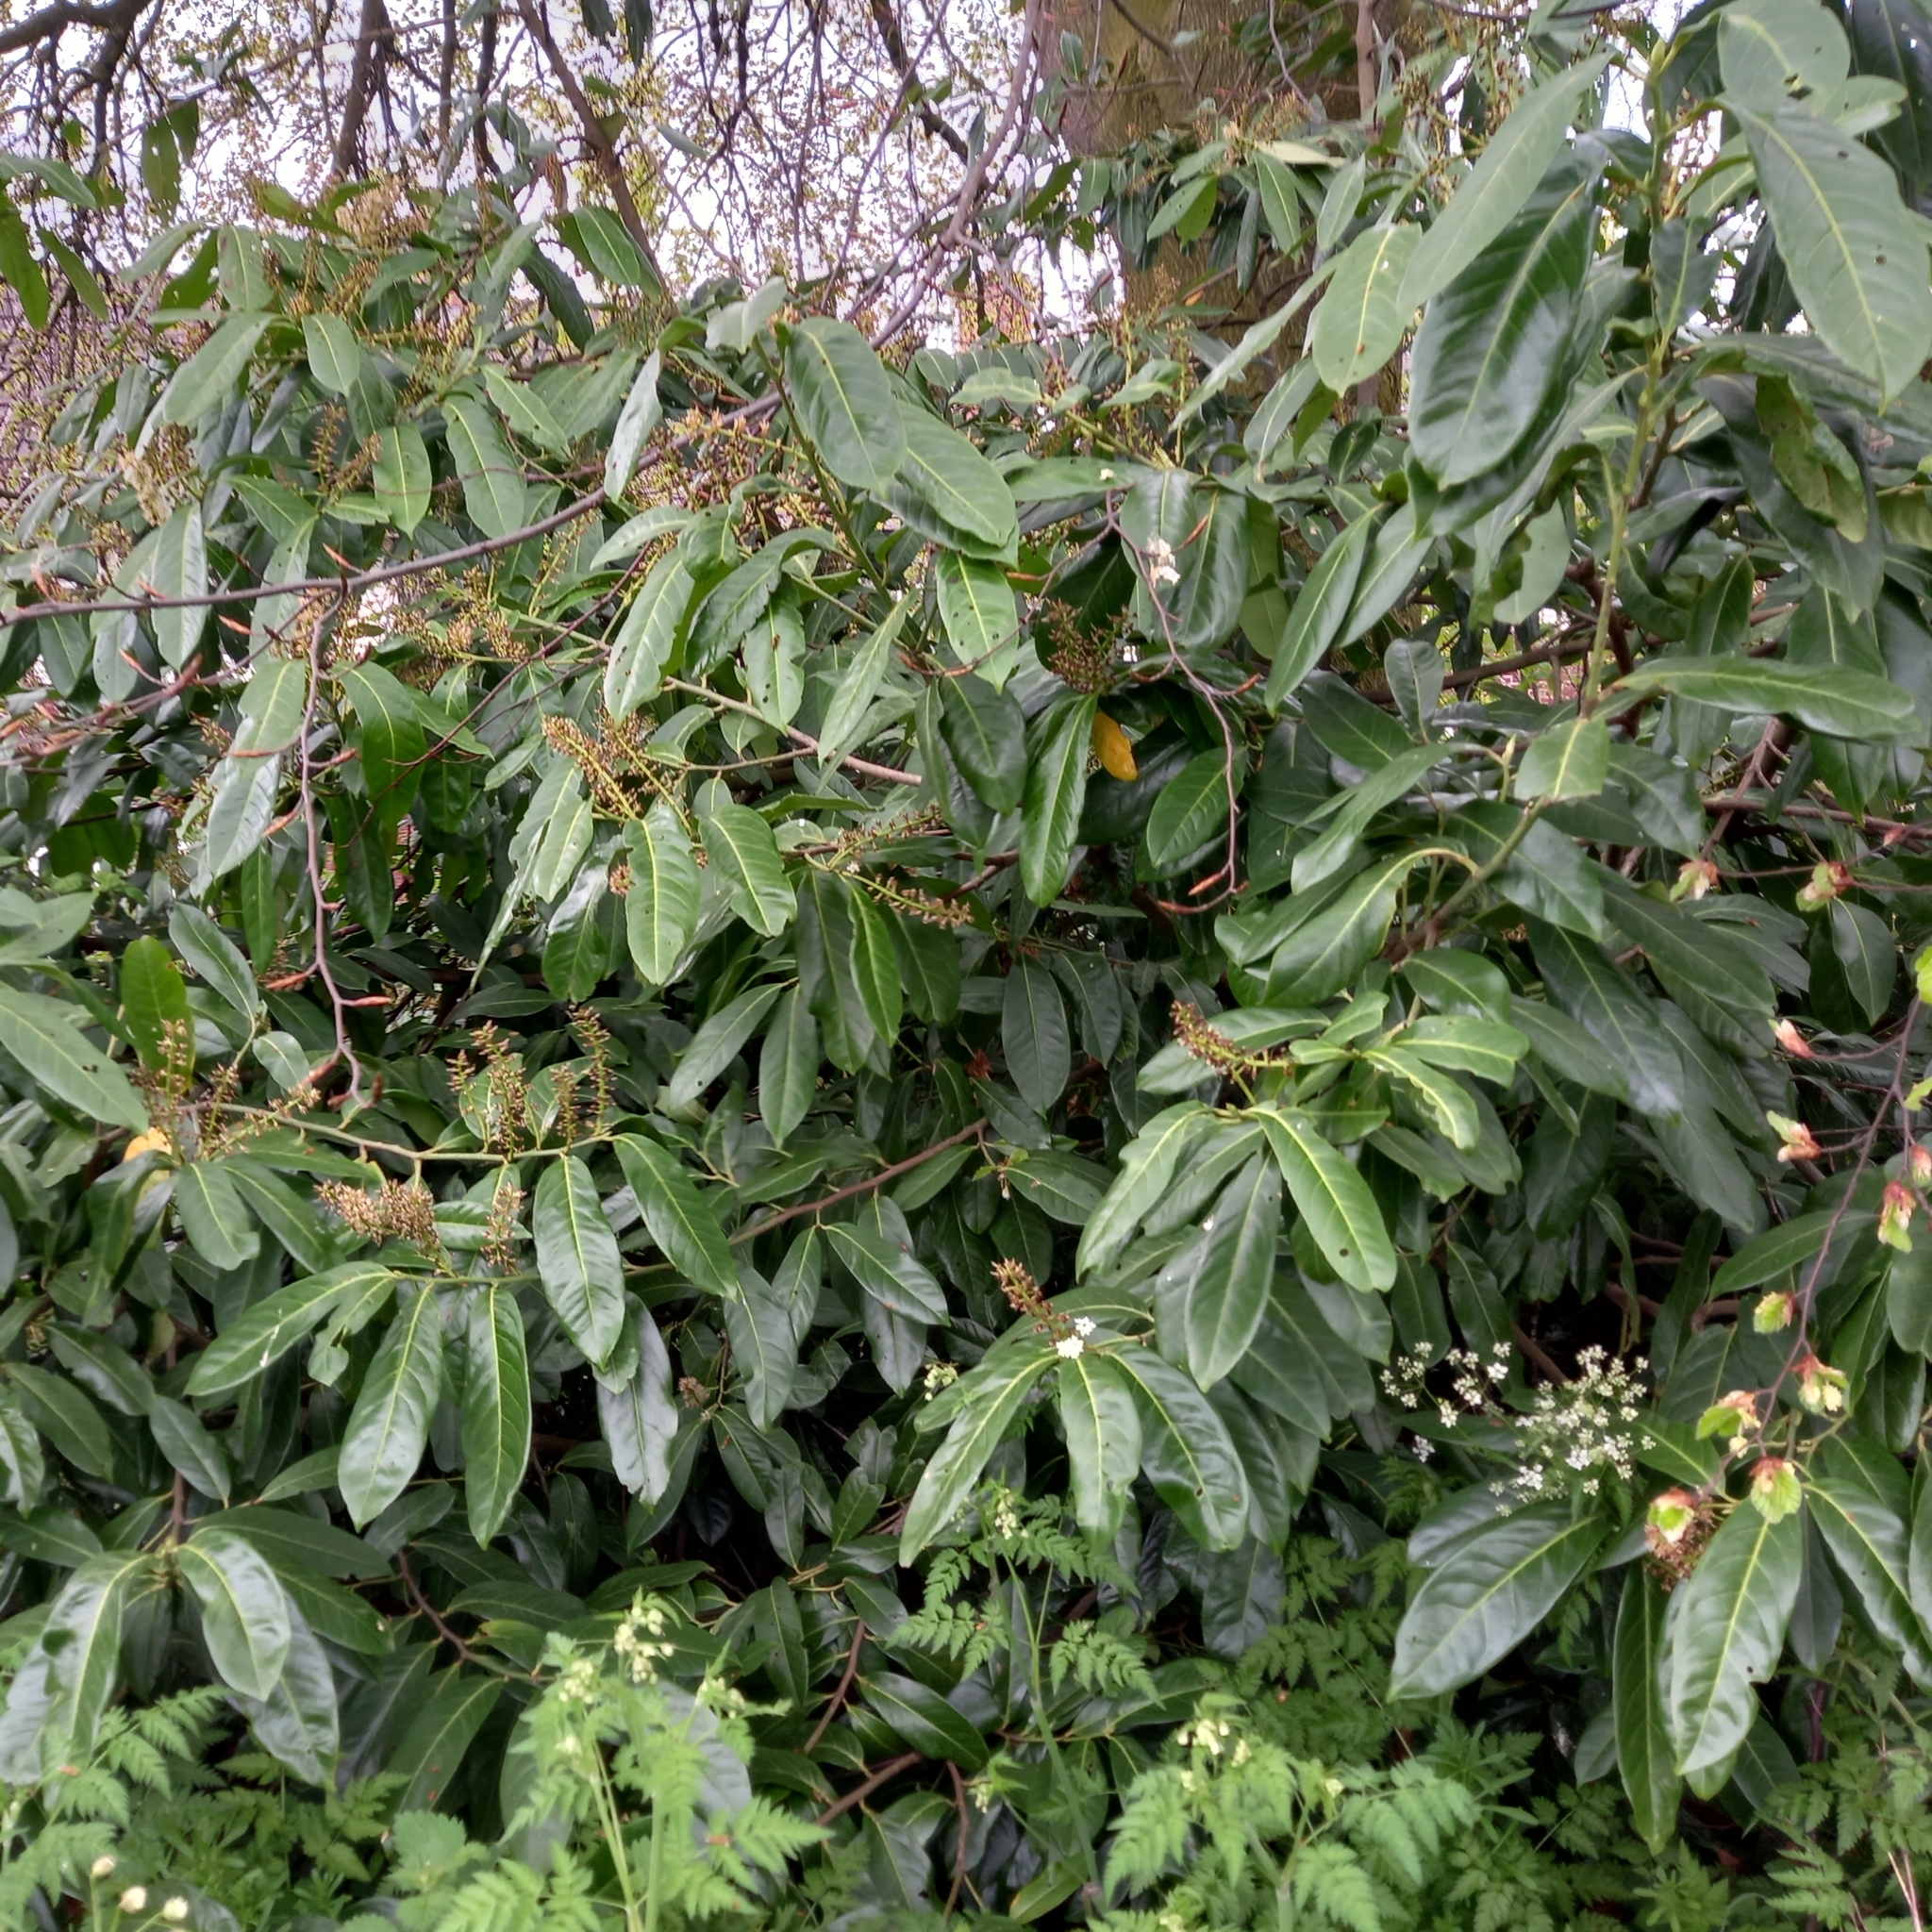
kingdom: Plantae
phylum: Tracheophyta
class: Magnoliopsida
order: Rosales
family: Rosaceae
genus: Prunus
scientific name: Prunus laurocerasus
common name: Cherry laurel
